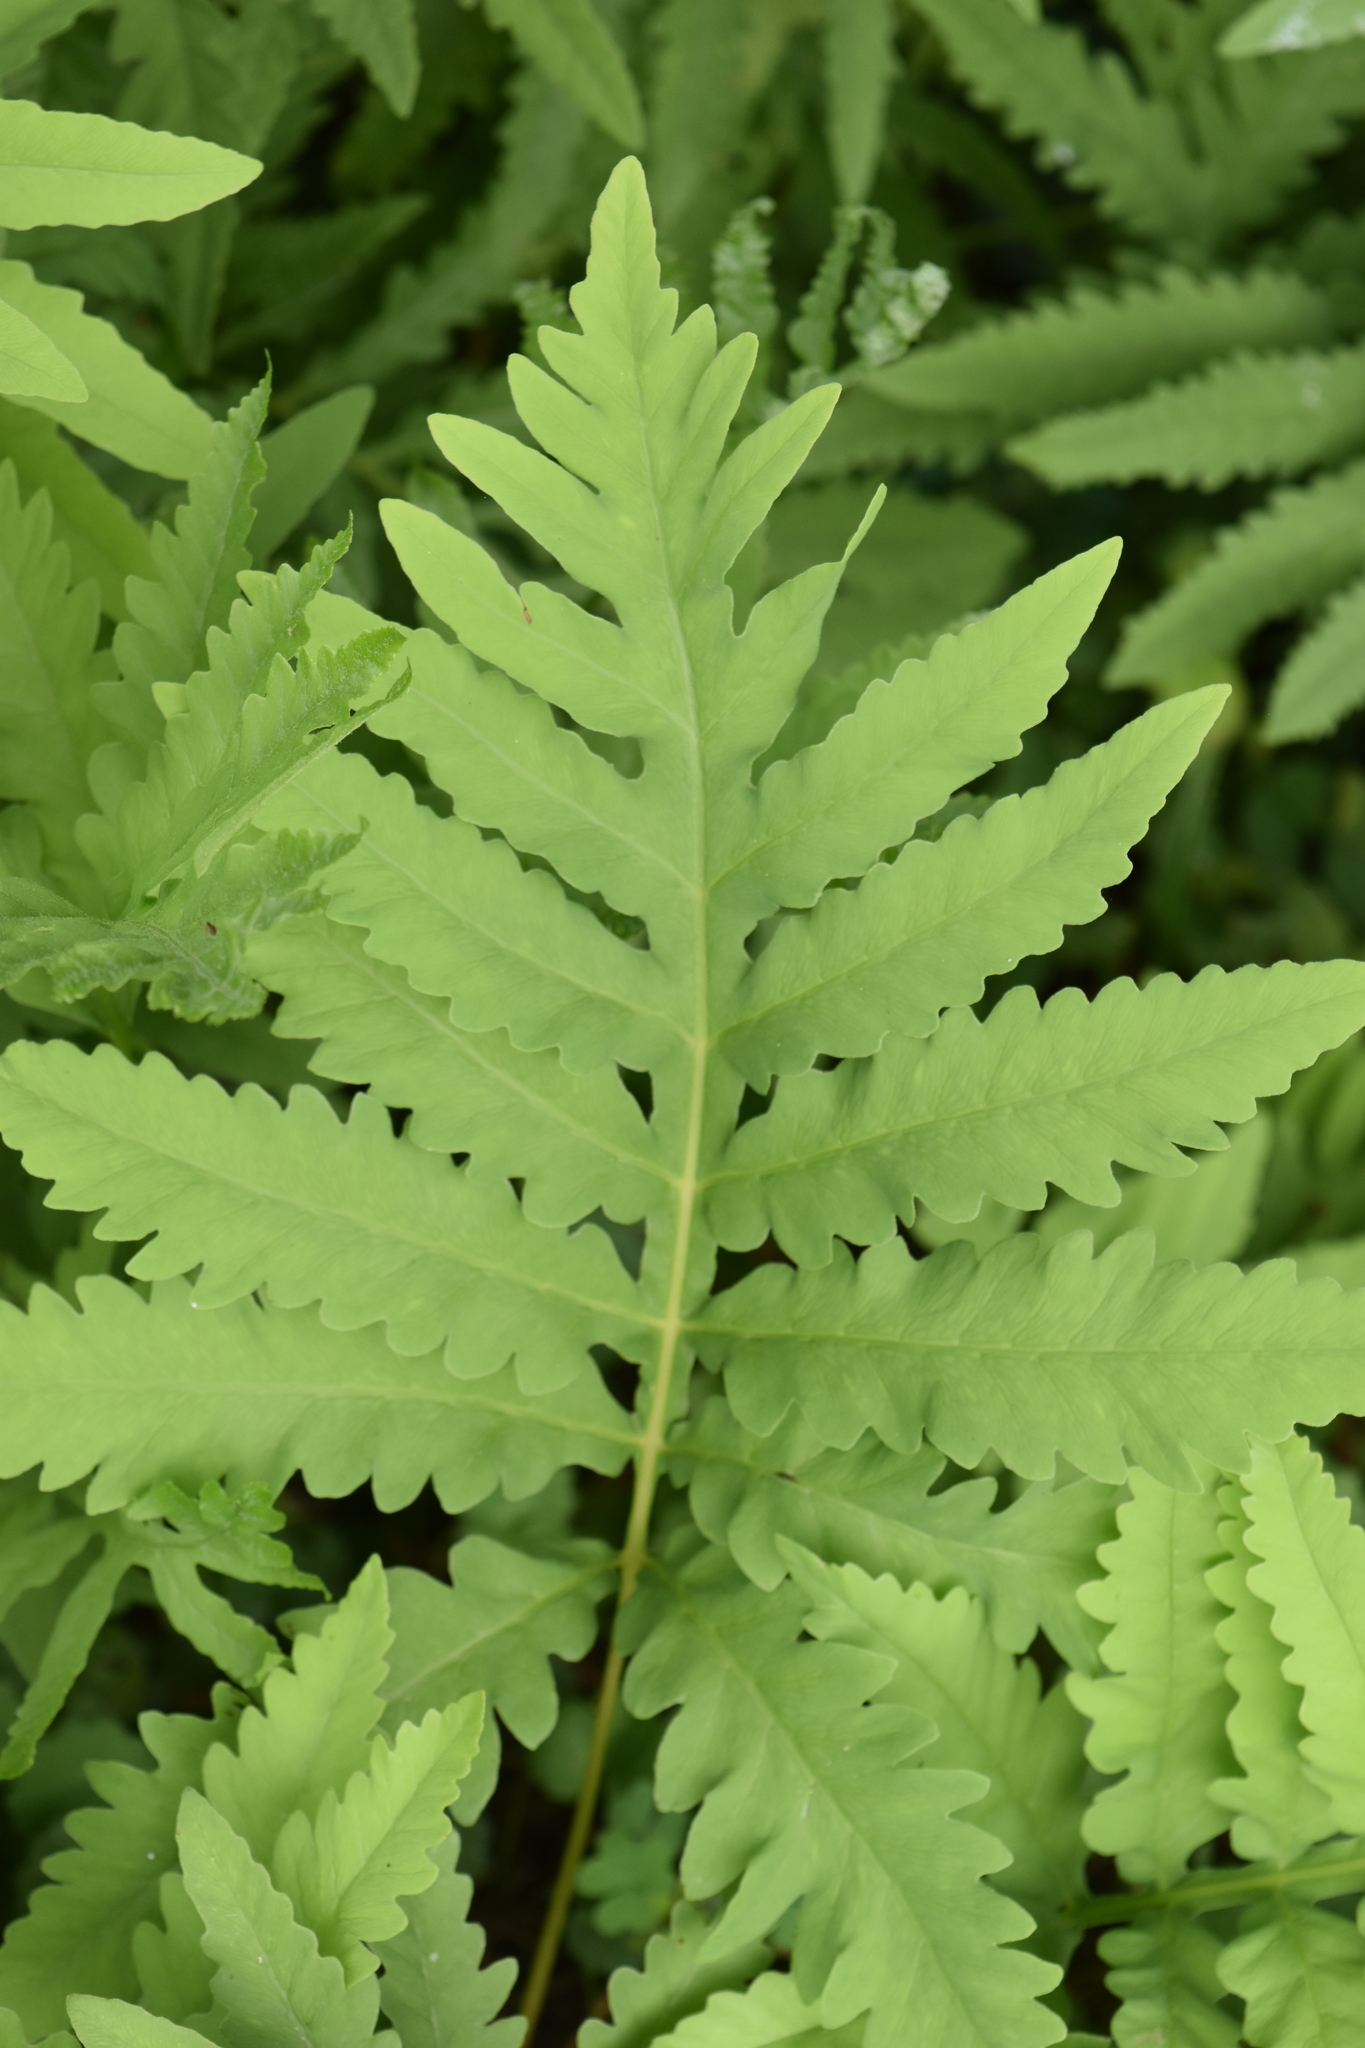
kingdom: Plantae
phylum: Tracheophyta
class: Polypodiopsida
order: Polypodiales
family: Onocleaceae
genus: Onoclea
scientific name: Onoclea sensibilis
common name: Sensitive fern
